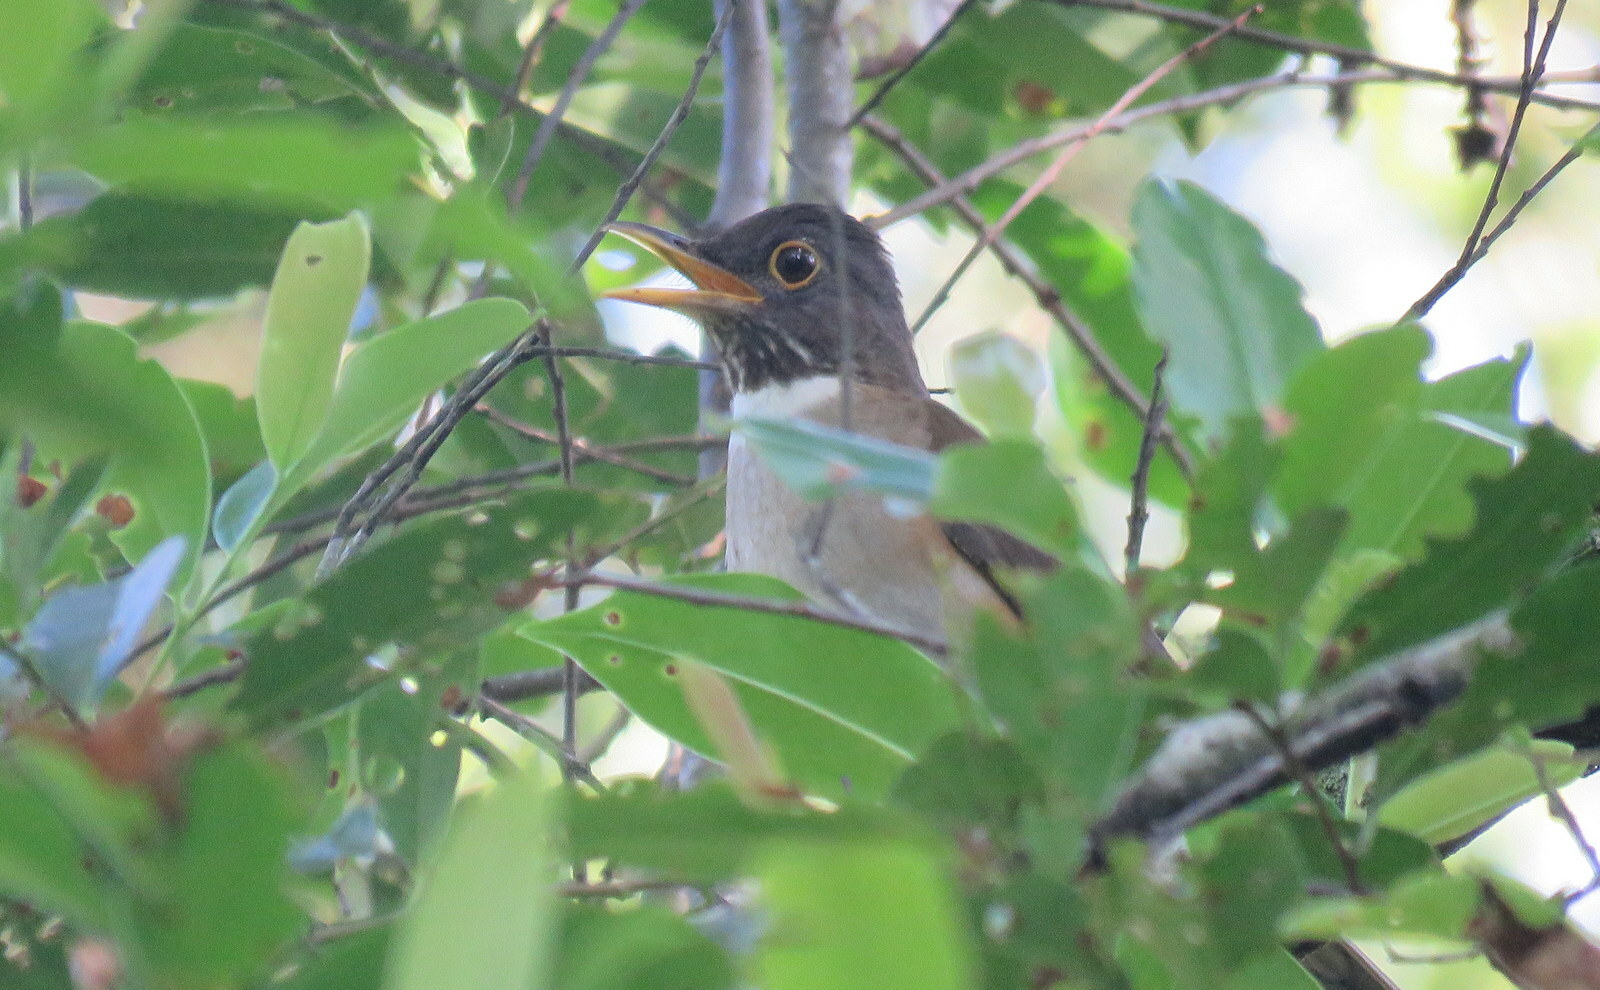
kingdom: Animalia
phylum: Chordata
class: Aves
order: Passeriformes
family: Turdidae
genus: Turdus
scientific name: Turdus albicollis
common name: White-necked thrush
